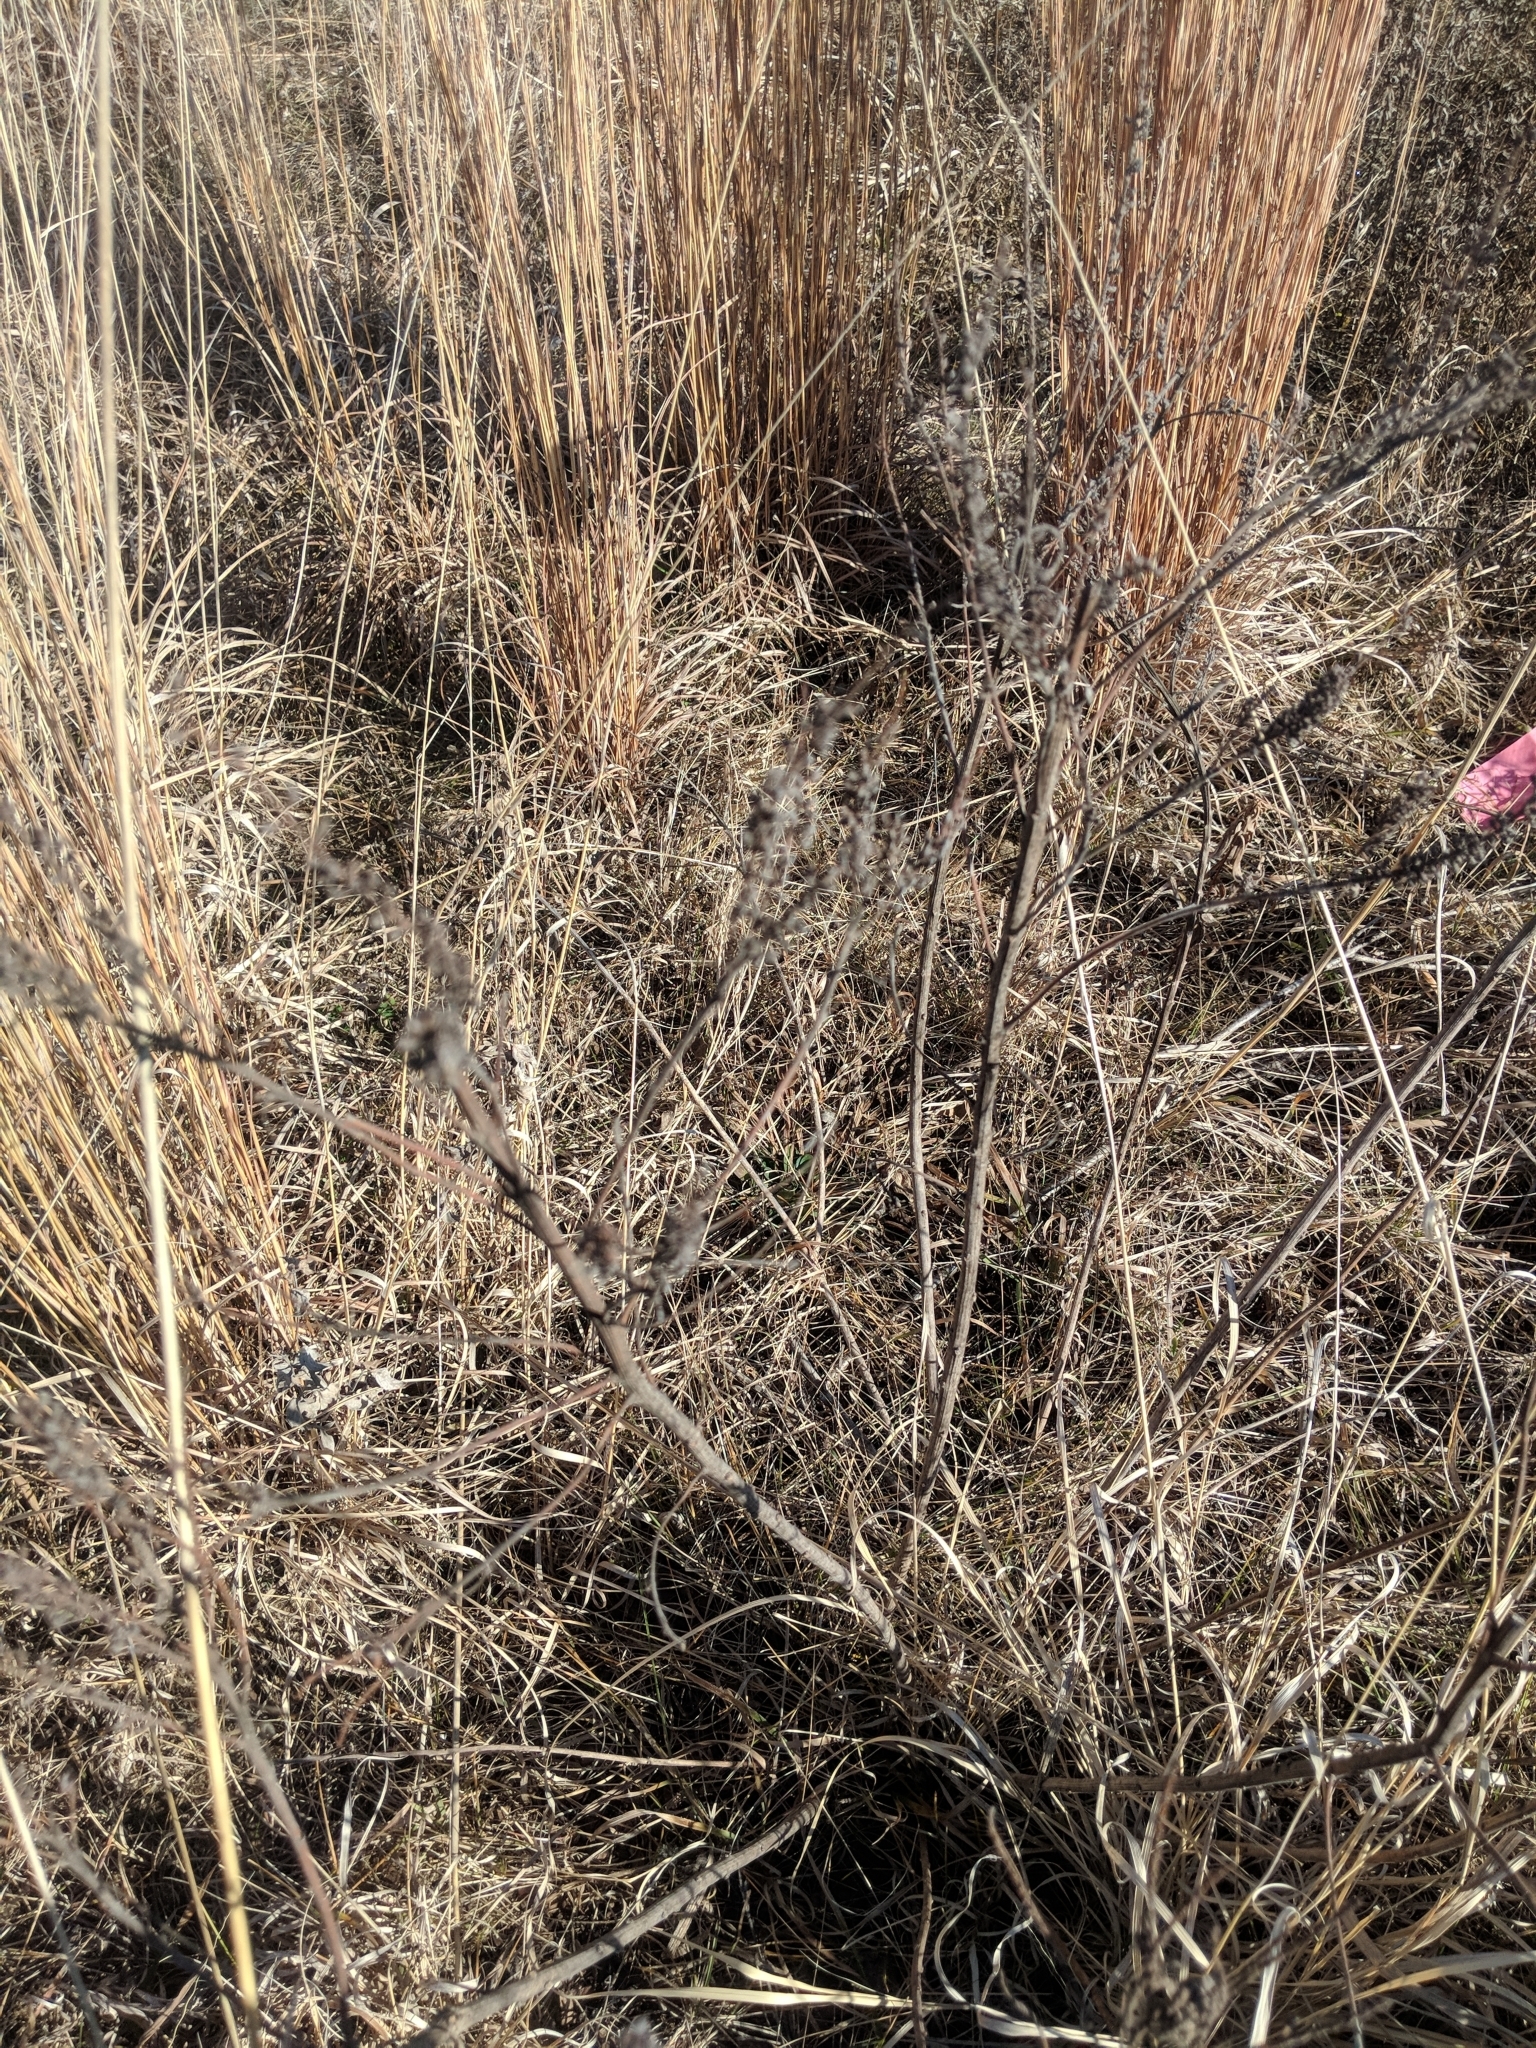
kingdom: Plantae
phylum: Tracheophyta
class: Magnoliopsida
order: Fabales
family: Fabaceae
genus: Amorpha
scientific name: Amorpha canescens
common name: Leadplant
